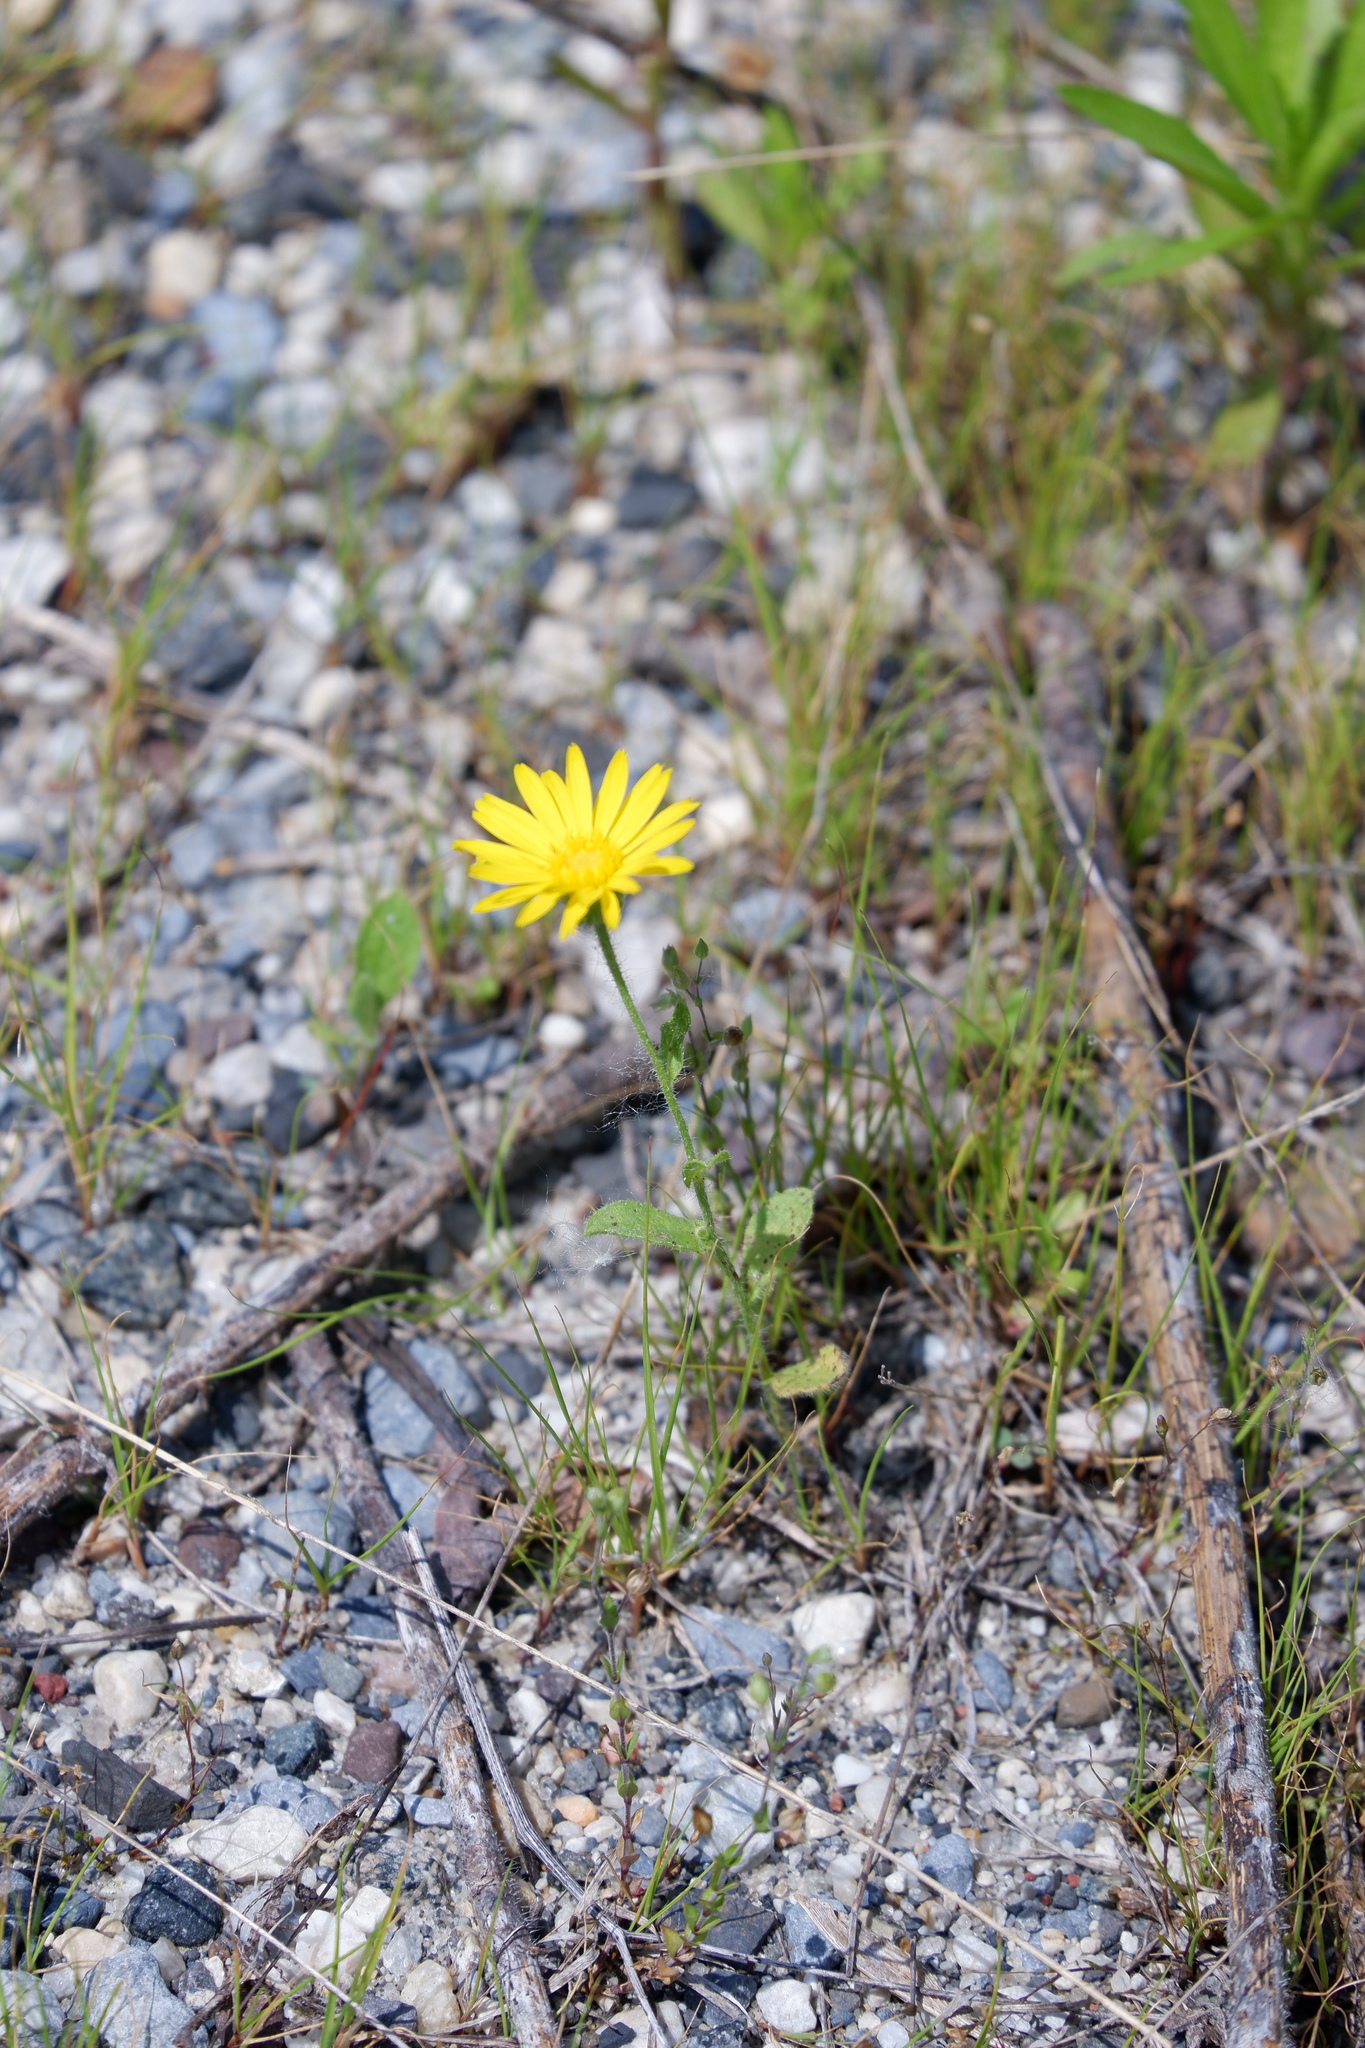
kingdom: Plantae
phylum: Tracheophyta
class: Magnoliopsida
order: Asterales
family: Asteraceae
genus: Heterotheca
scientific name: Heterotheca subaxillaris
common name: Camphorweed
